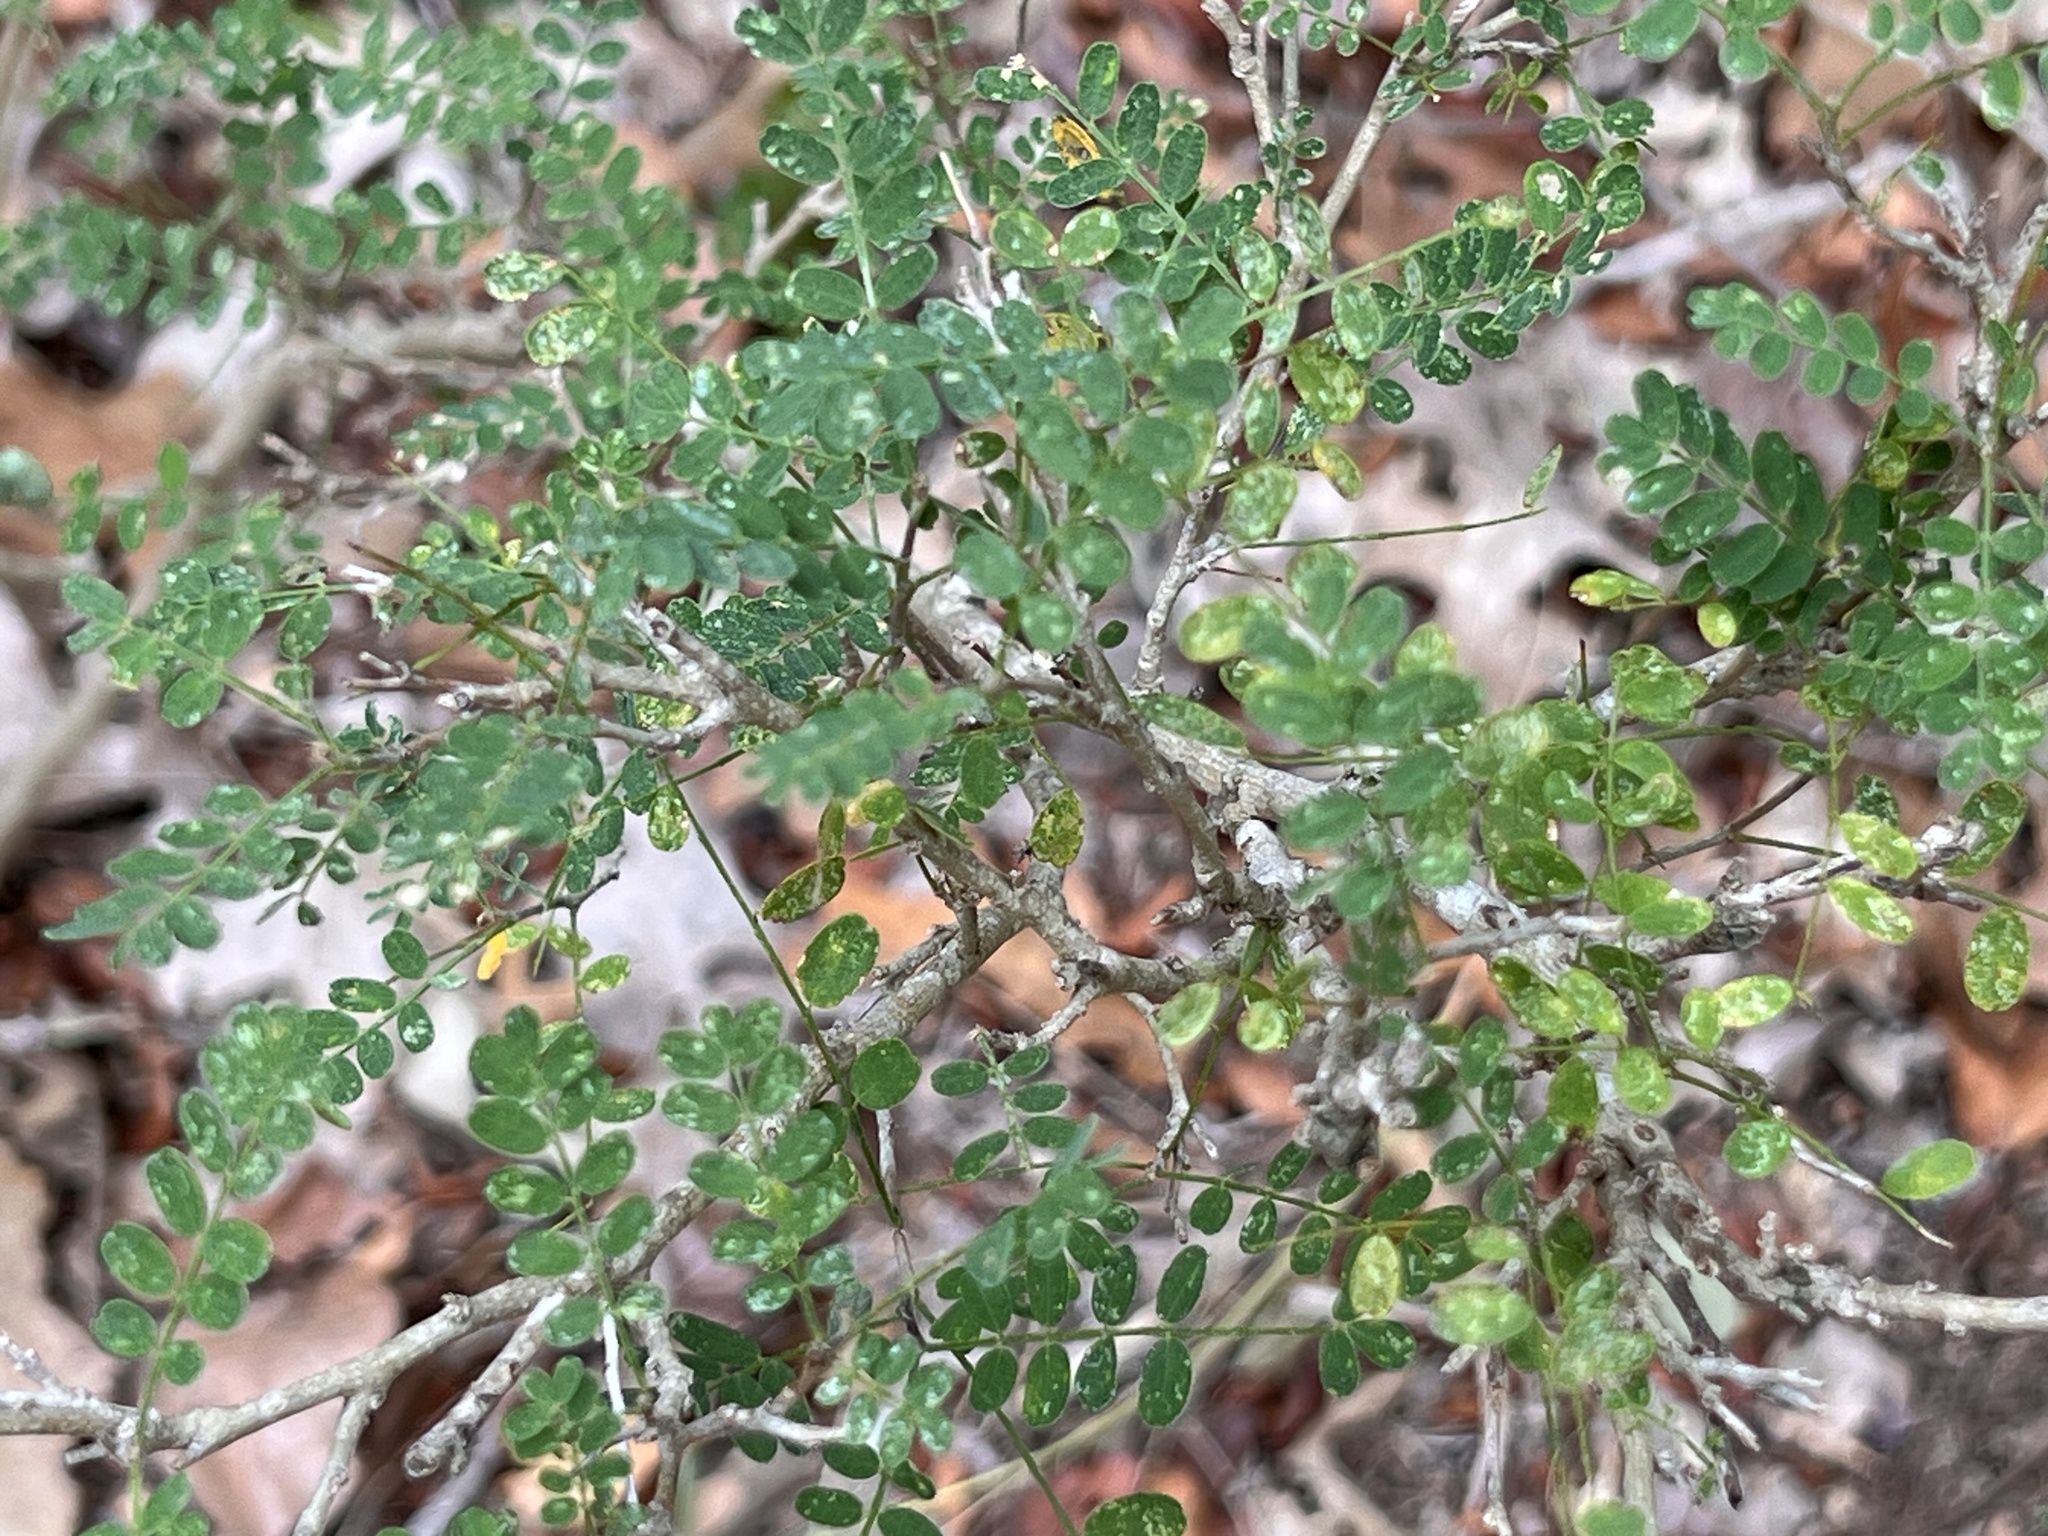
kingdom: Plantae
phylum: Tracheophyta
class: Magnoliopsida
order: Fabales
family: Fabaceae
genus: Eysenhardtia
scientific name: Eysenhardtia texana
